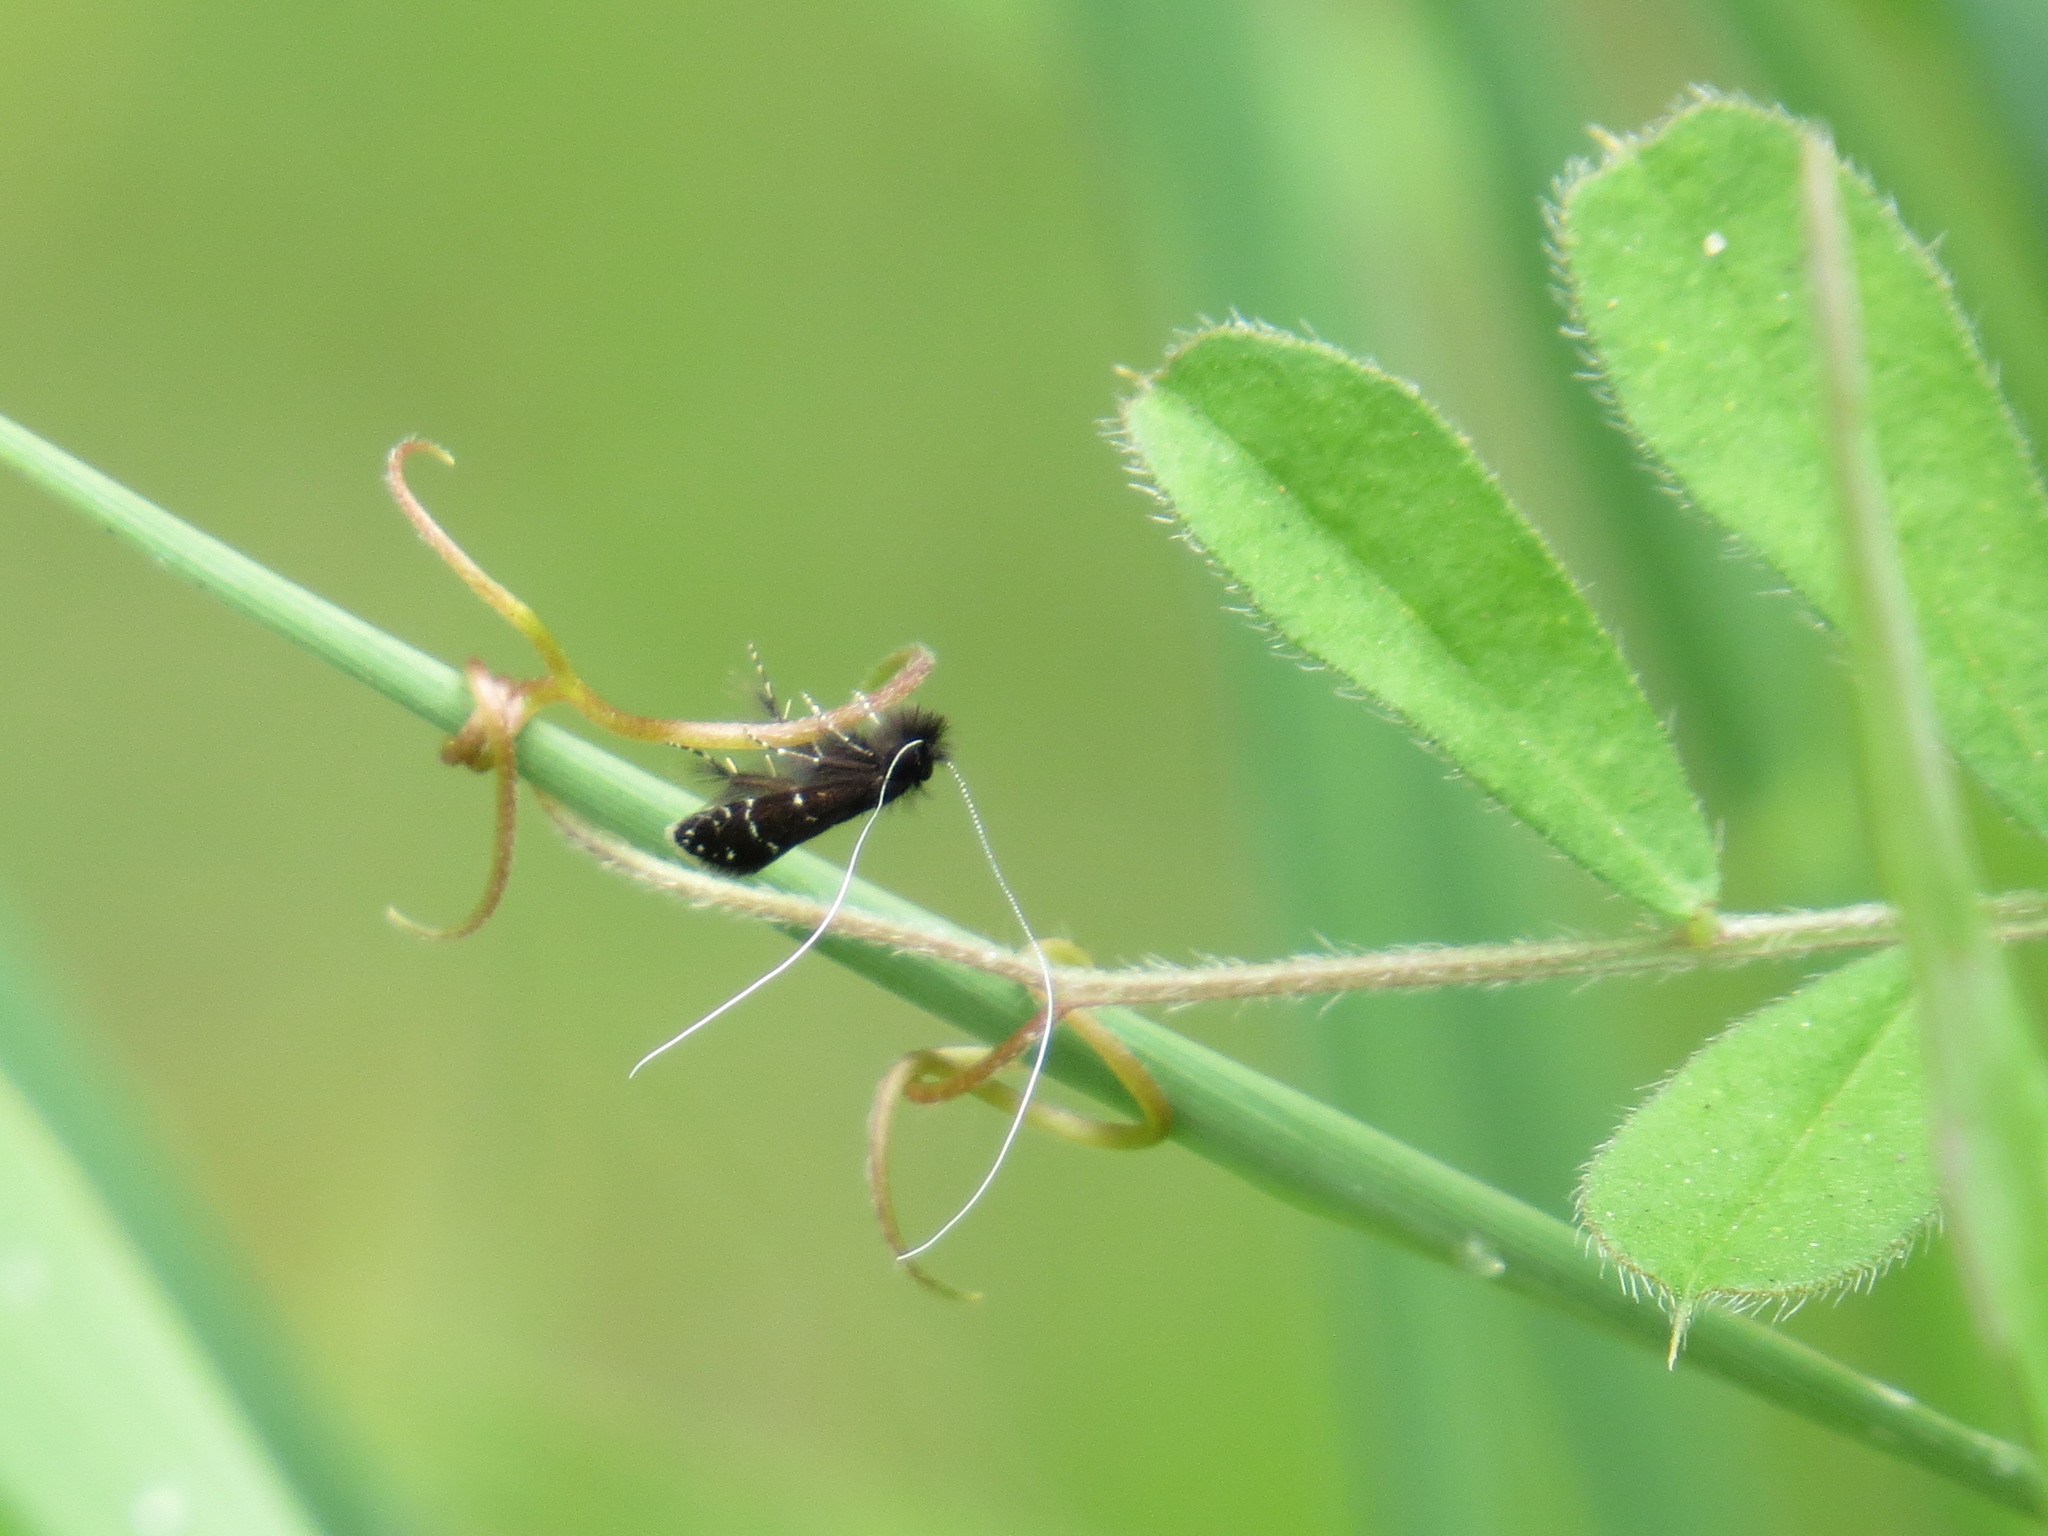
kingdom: Animalia
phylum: Arthropoda
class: Insecta
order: Lepidoptera
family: Adelidae
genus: Adela
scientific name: Adela septentrionella
